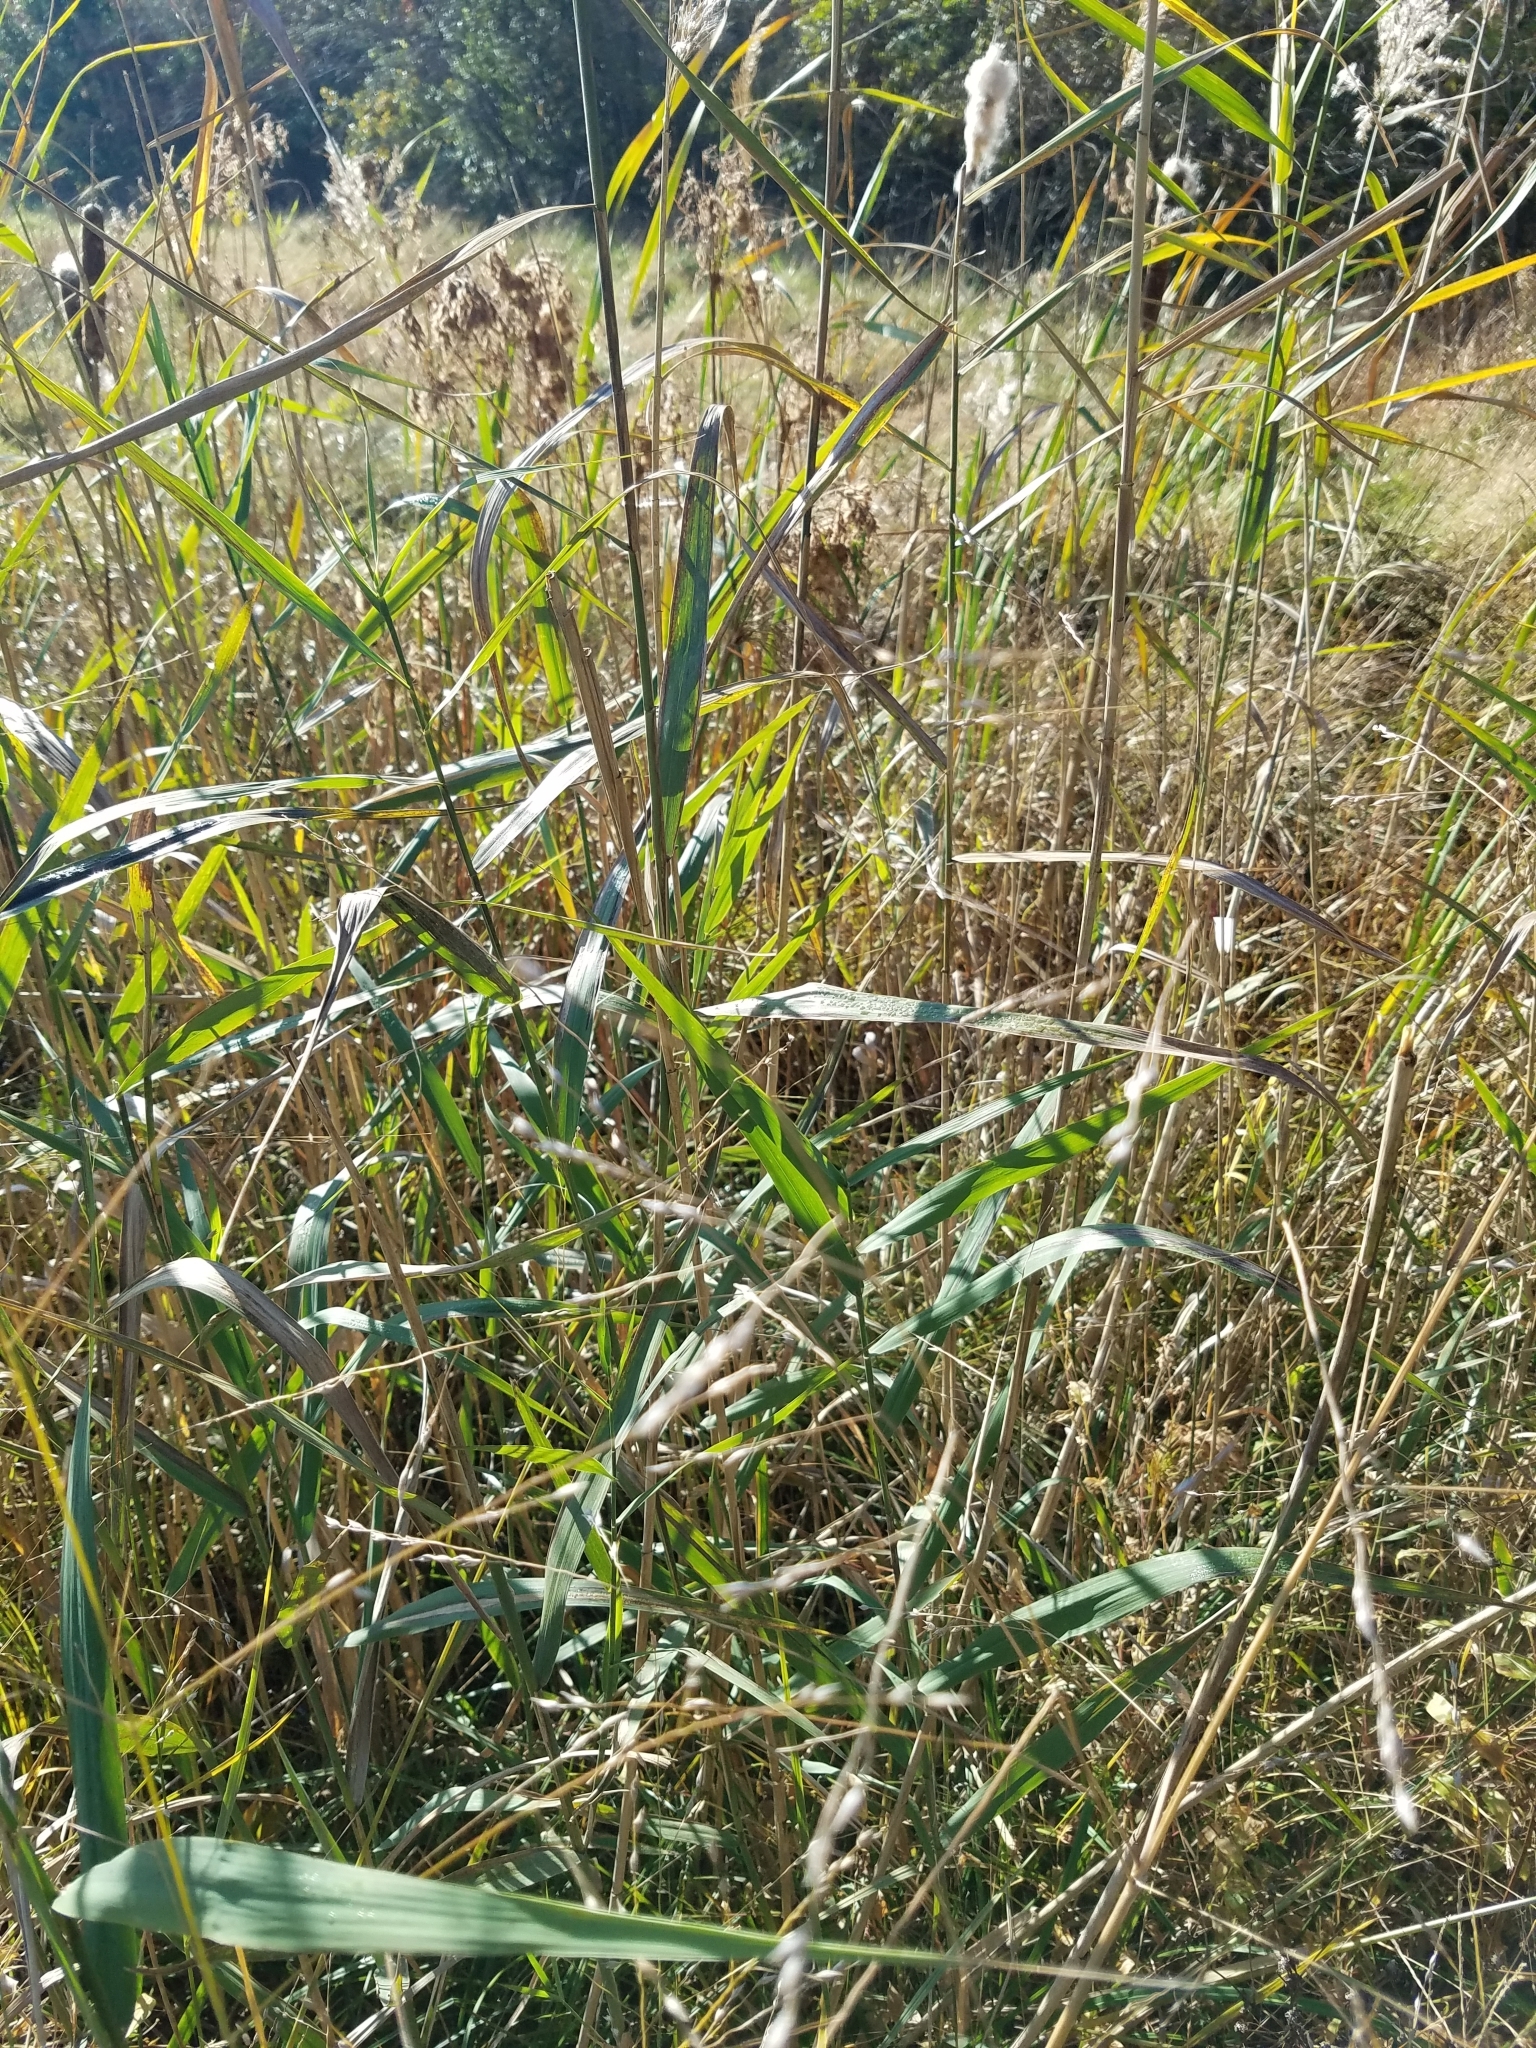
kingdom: Plantae
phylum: Tracheophyta
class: Liliopsida
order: Poales
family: Poaceae
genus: Phragmites
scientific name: Phragmites australis
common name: Common reed
